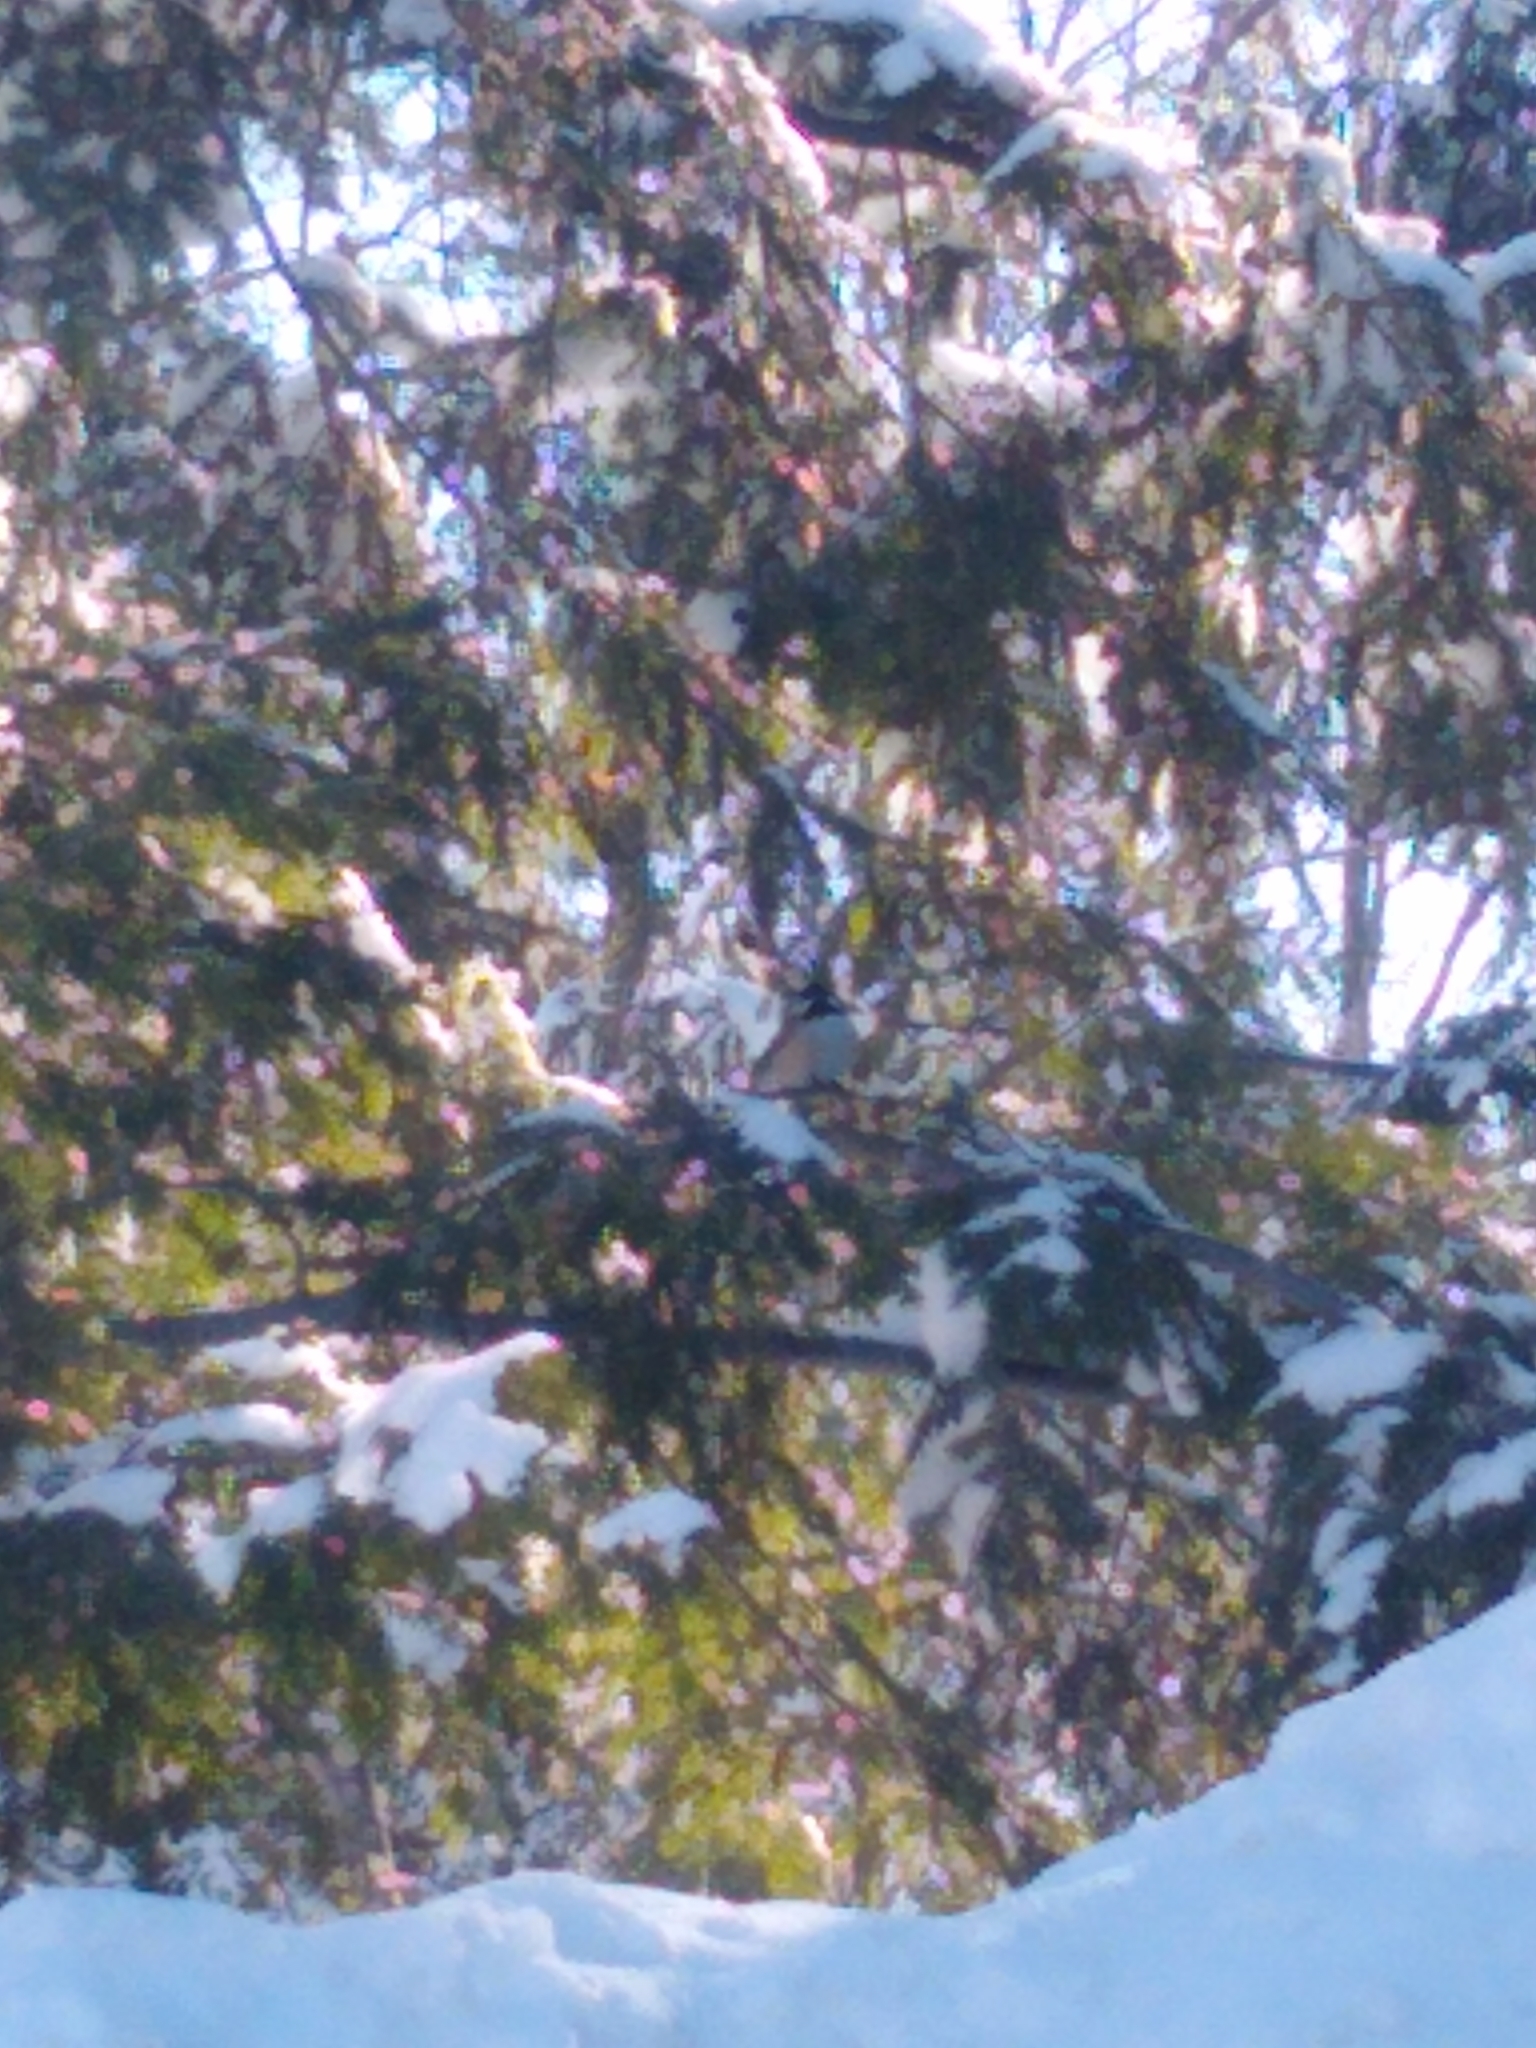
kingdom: Animalia
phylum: Chordata
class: Aves
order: Passeriformes
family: Paridae
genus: Poecile
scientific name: Poecile atricapillus
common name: Black-capped chickadee
